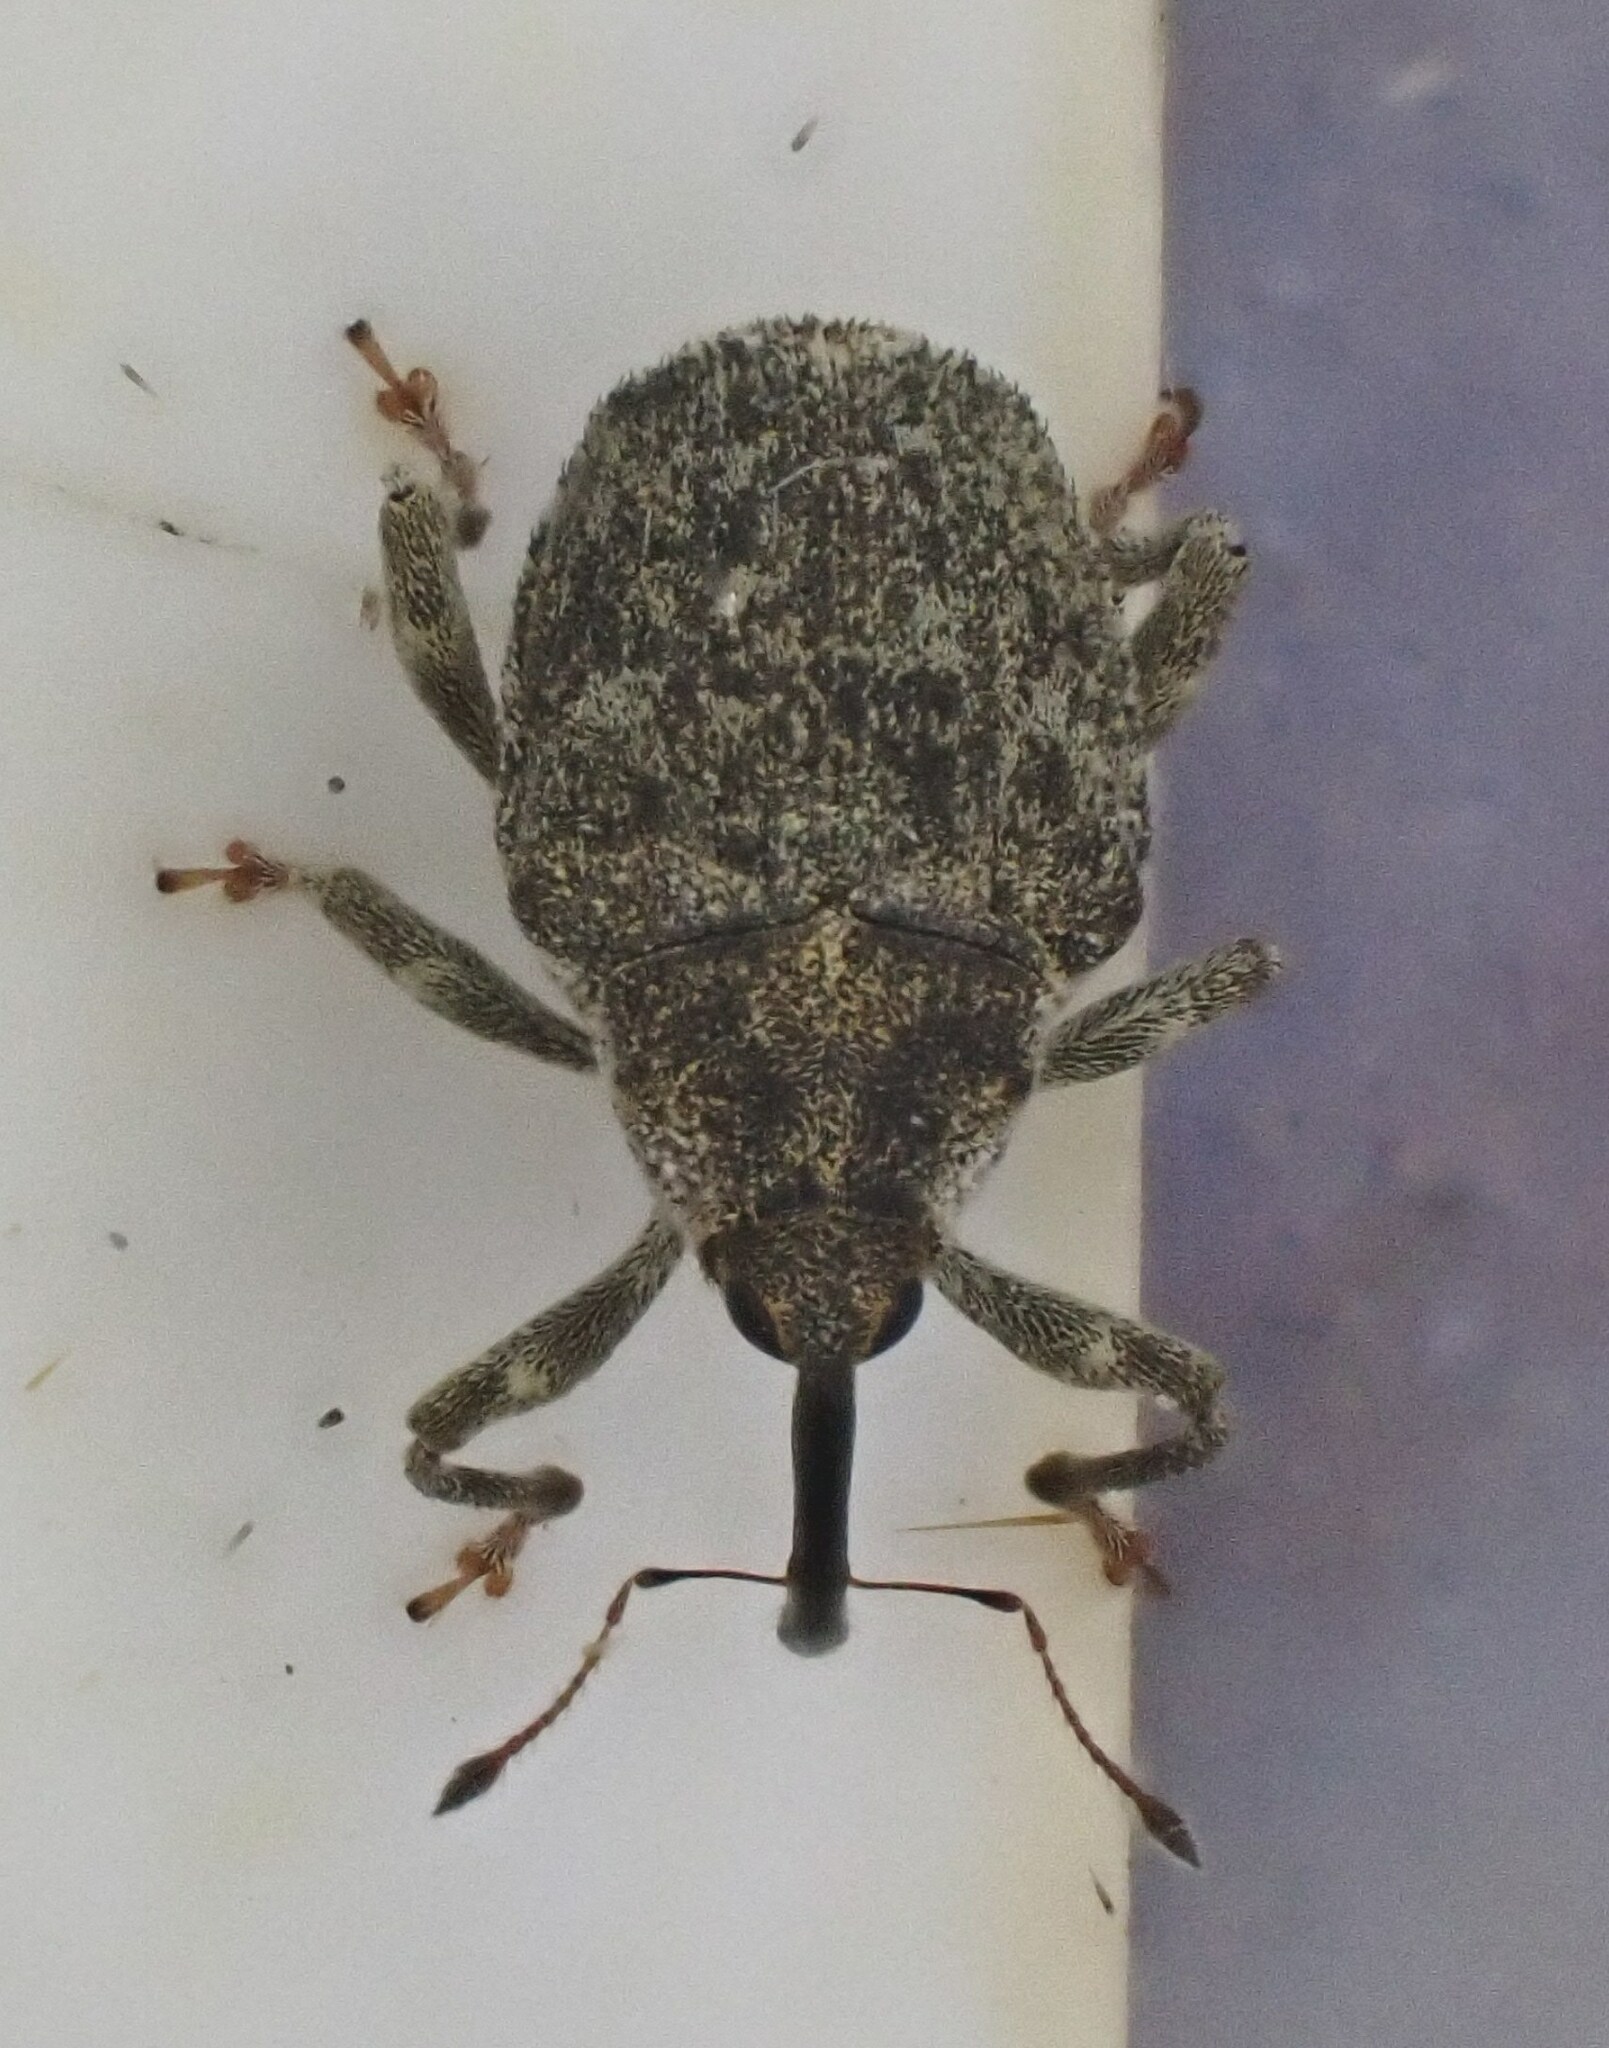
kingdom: Animalia
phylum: Arthropoda
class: Insecta
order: Coleoptera
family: Curculionidae
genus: Parethelcus
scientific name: Parethelcus pollinarius
